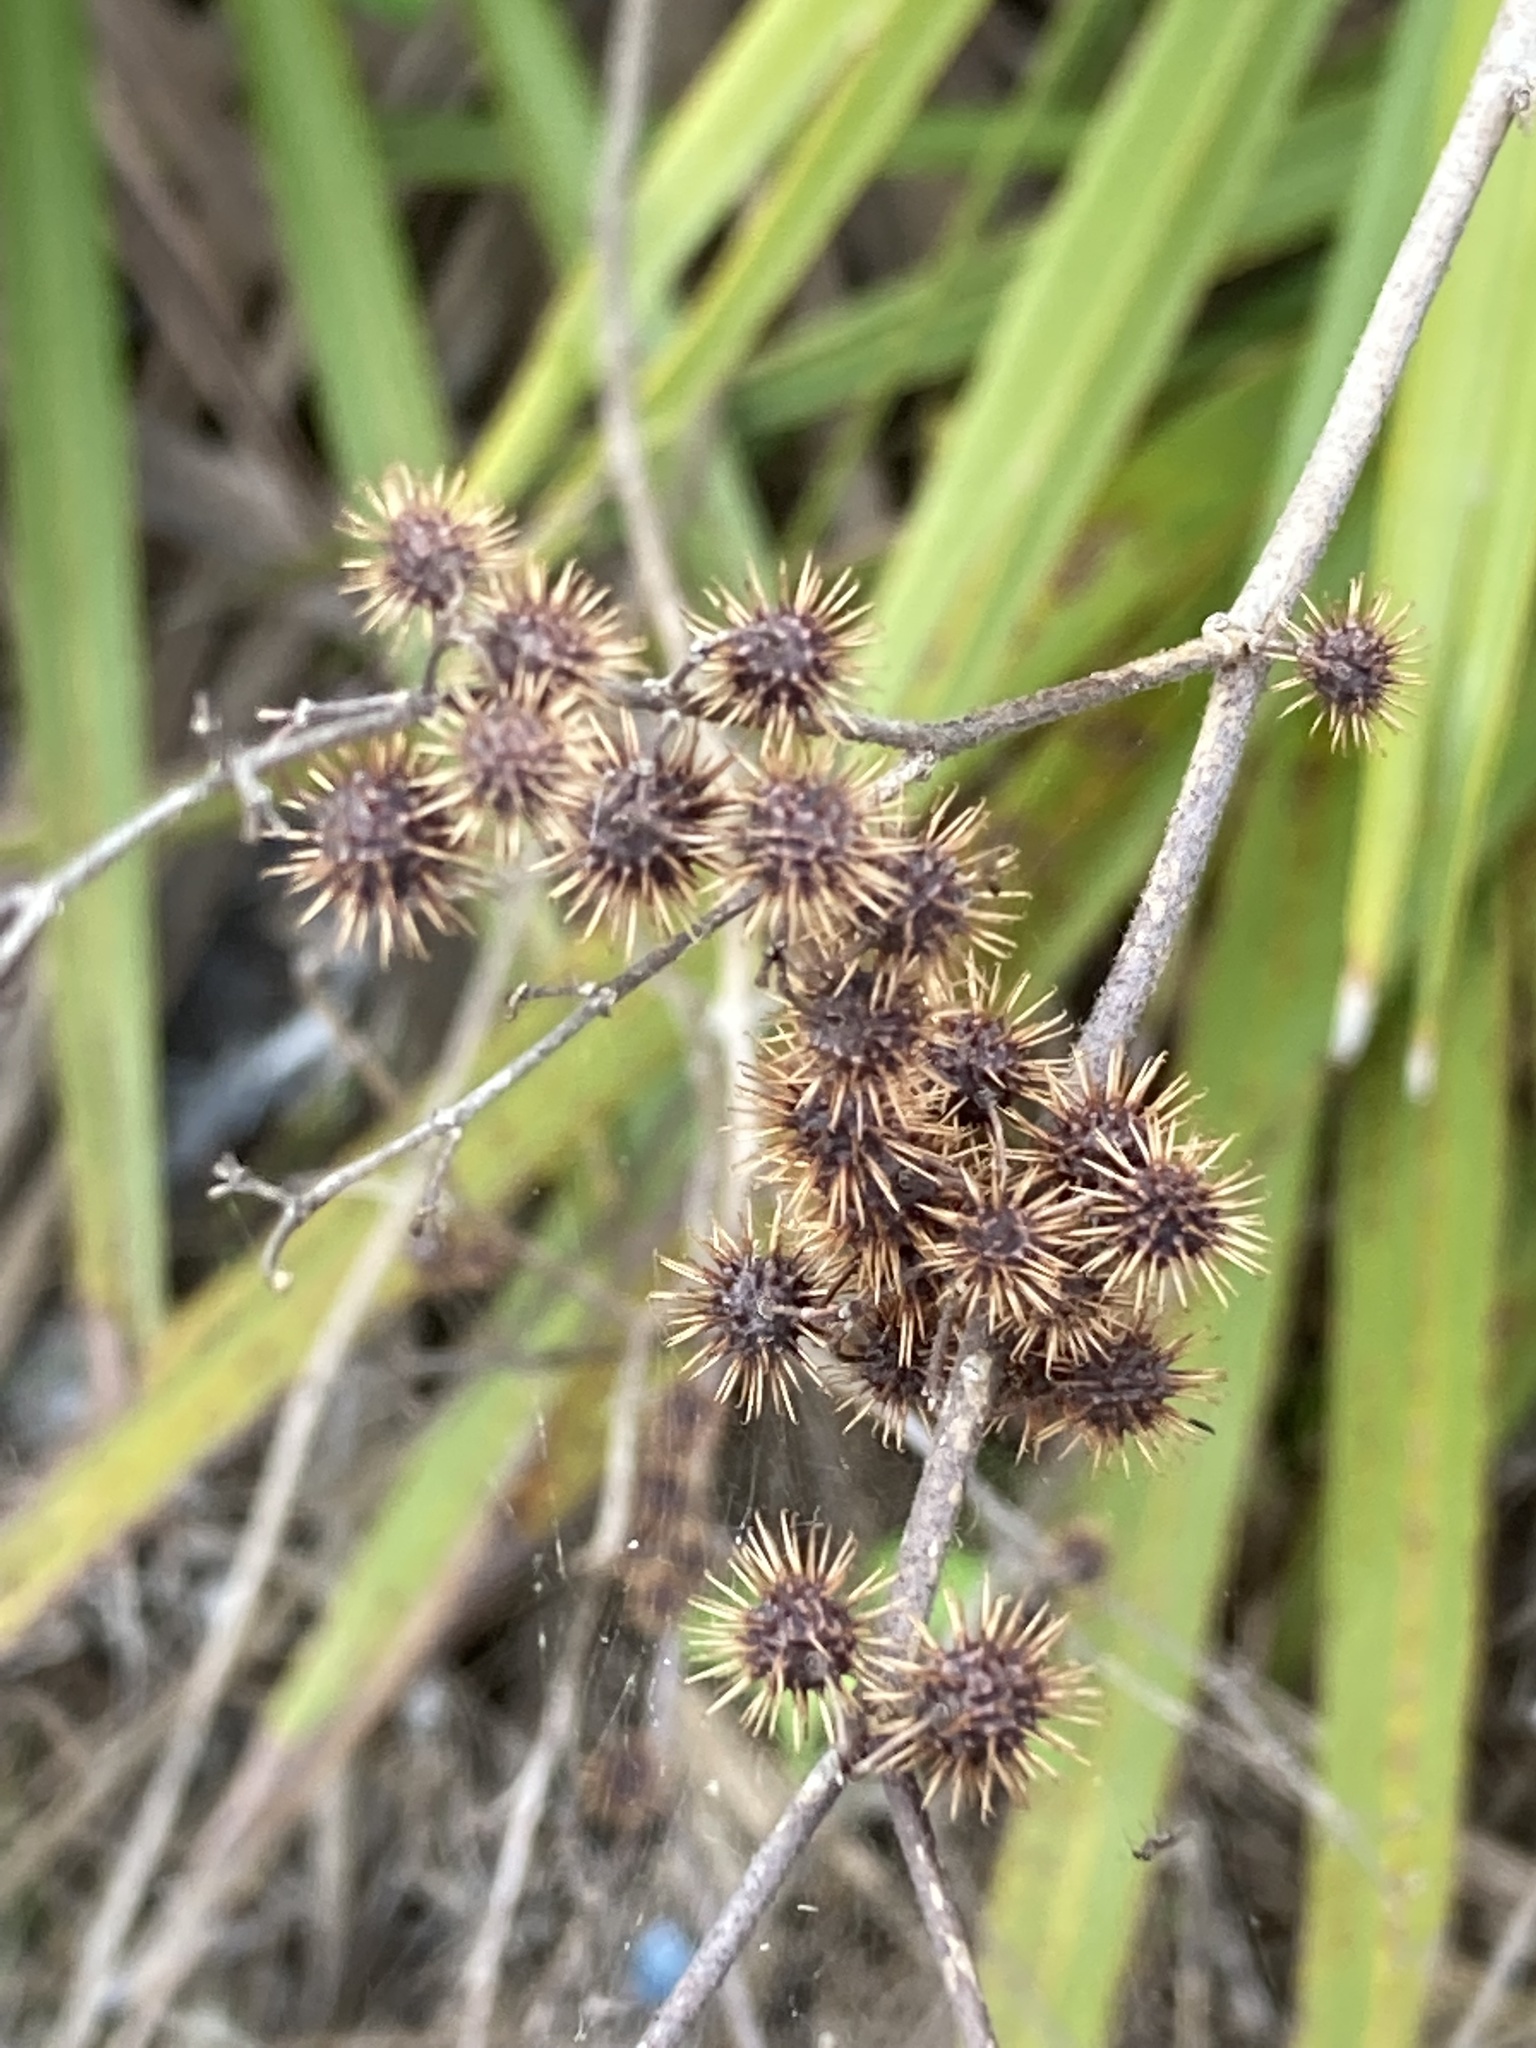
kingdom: Plantae
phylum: Tracheophyta
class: Magnoliopsida
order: Malvales
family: Malvaceae
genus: Triumfetta
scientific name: Triumfetta semitriloba
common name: Sacramento burbark
